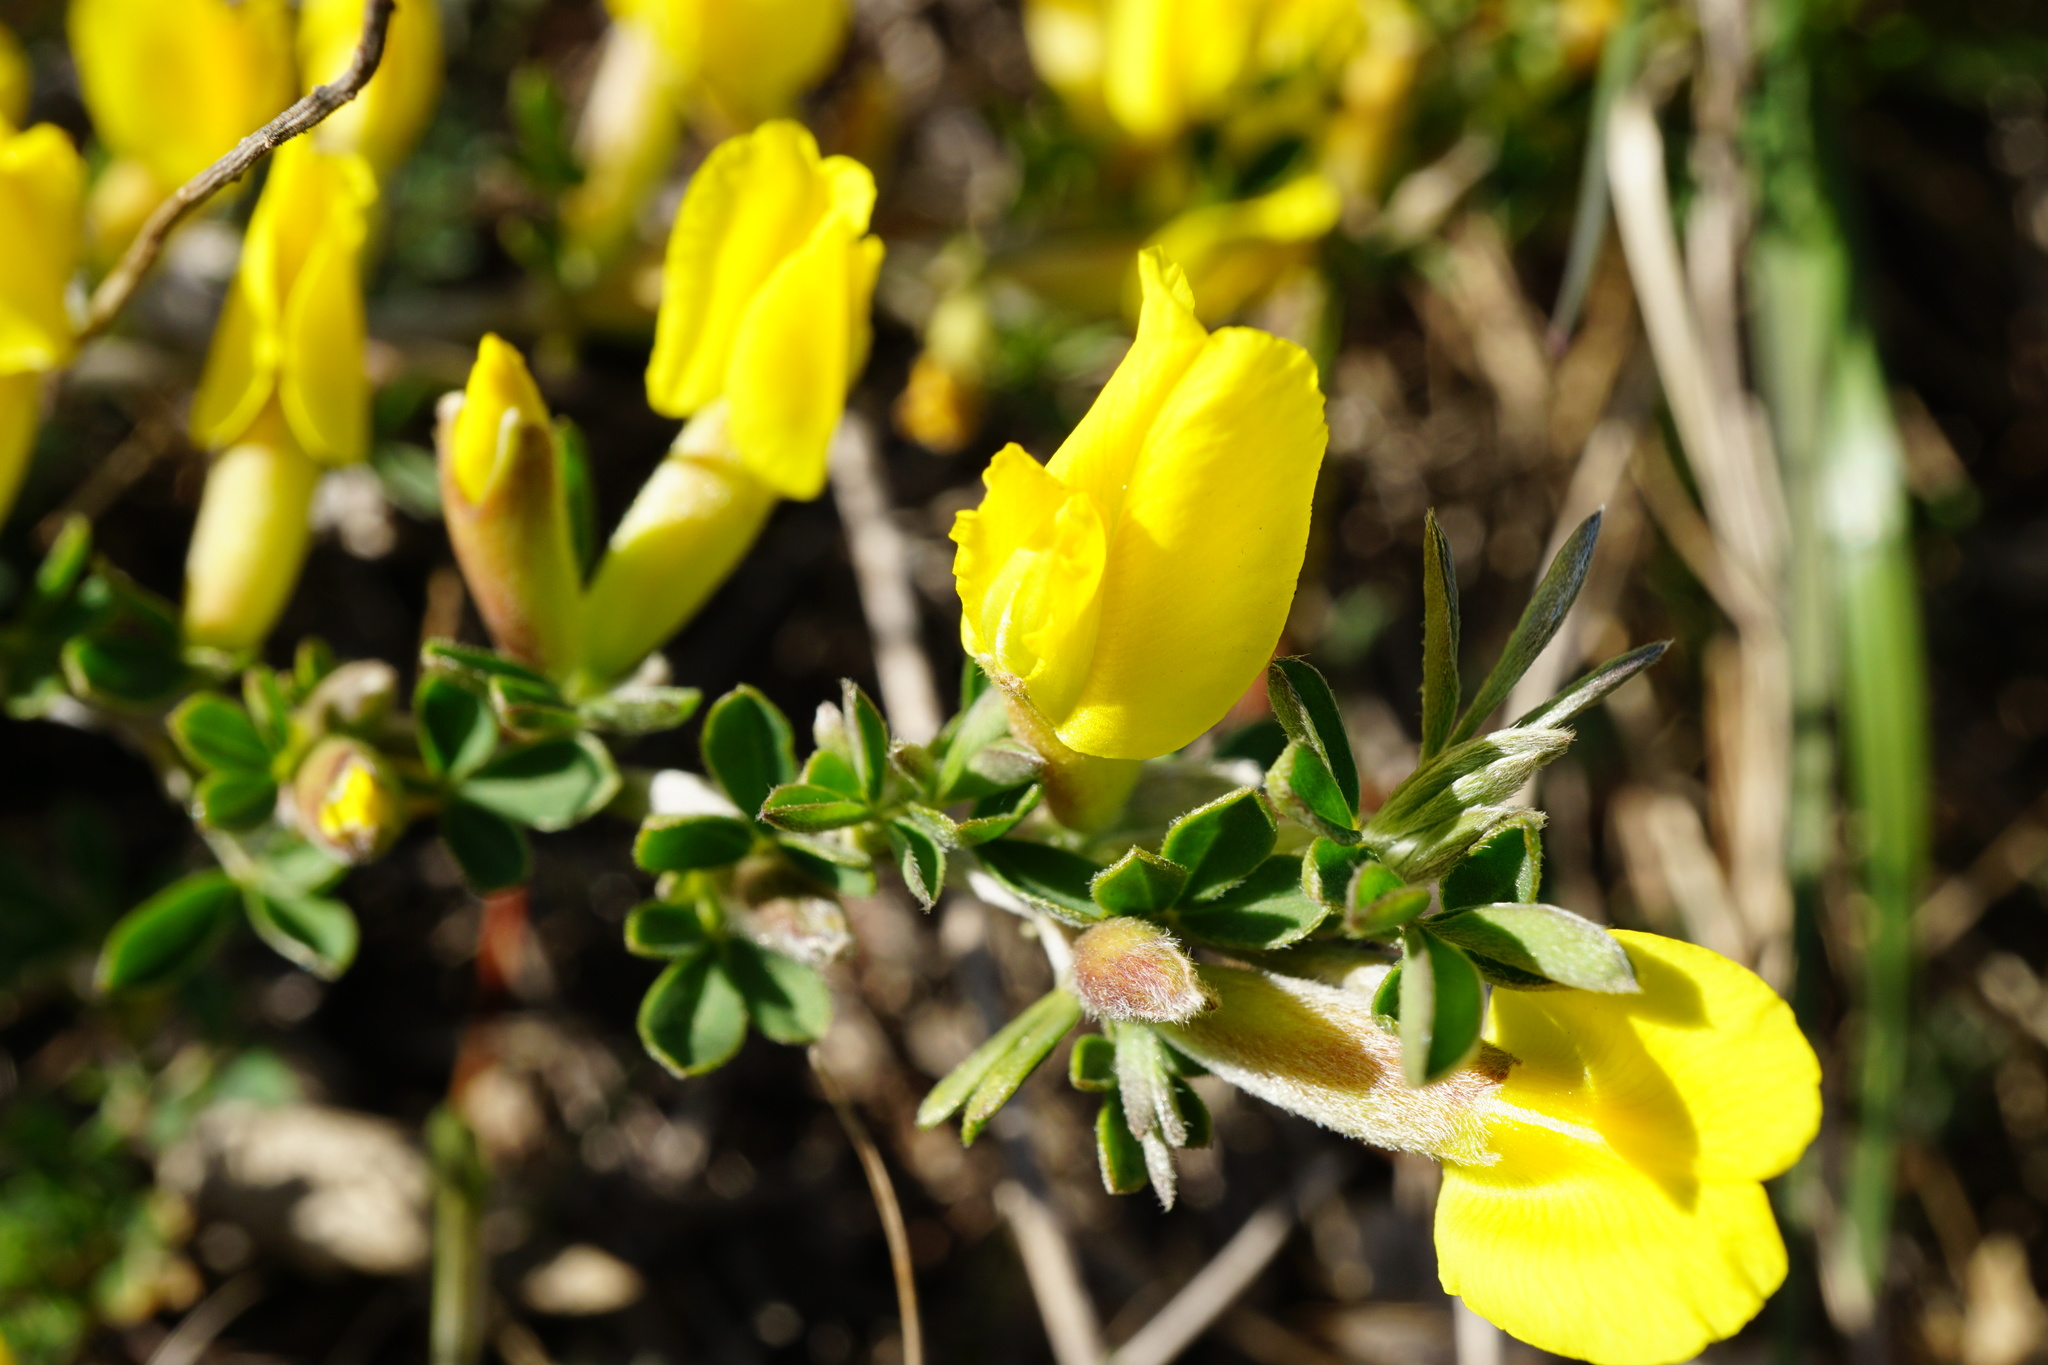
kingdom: Plantae
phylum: Tracheophyta
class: Magnoliopsida
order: Fabales
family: Fabaceae
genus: Chamaecytisus
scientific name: Chamaecytisus ratisbonensis
